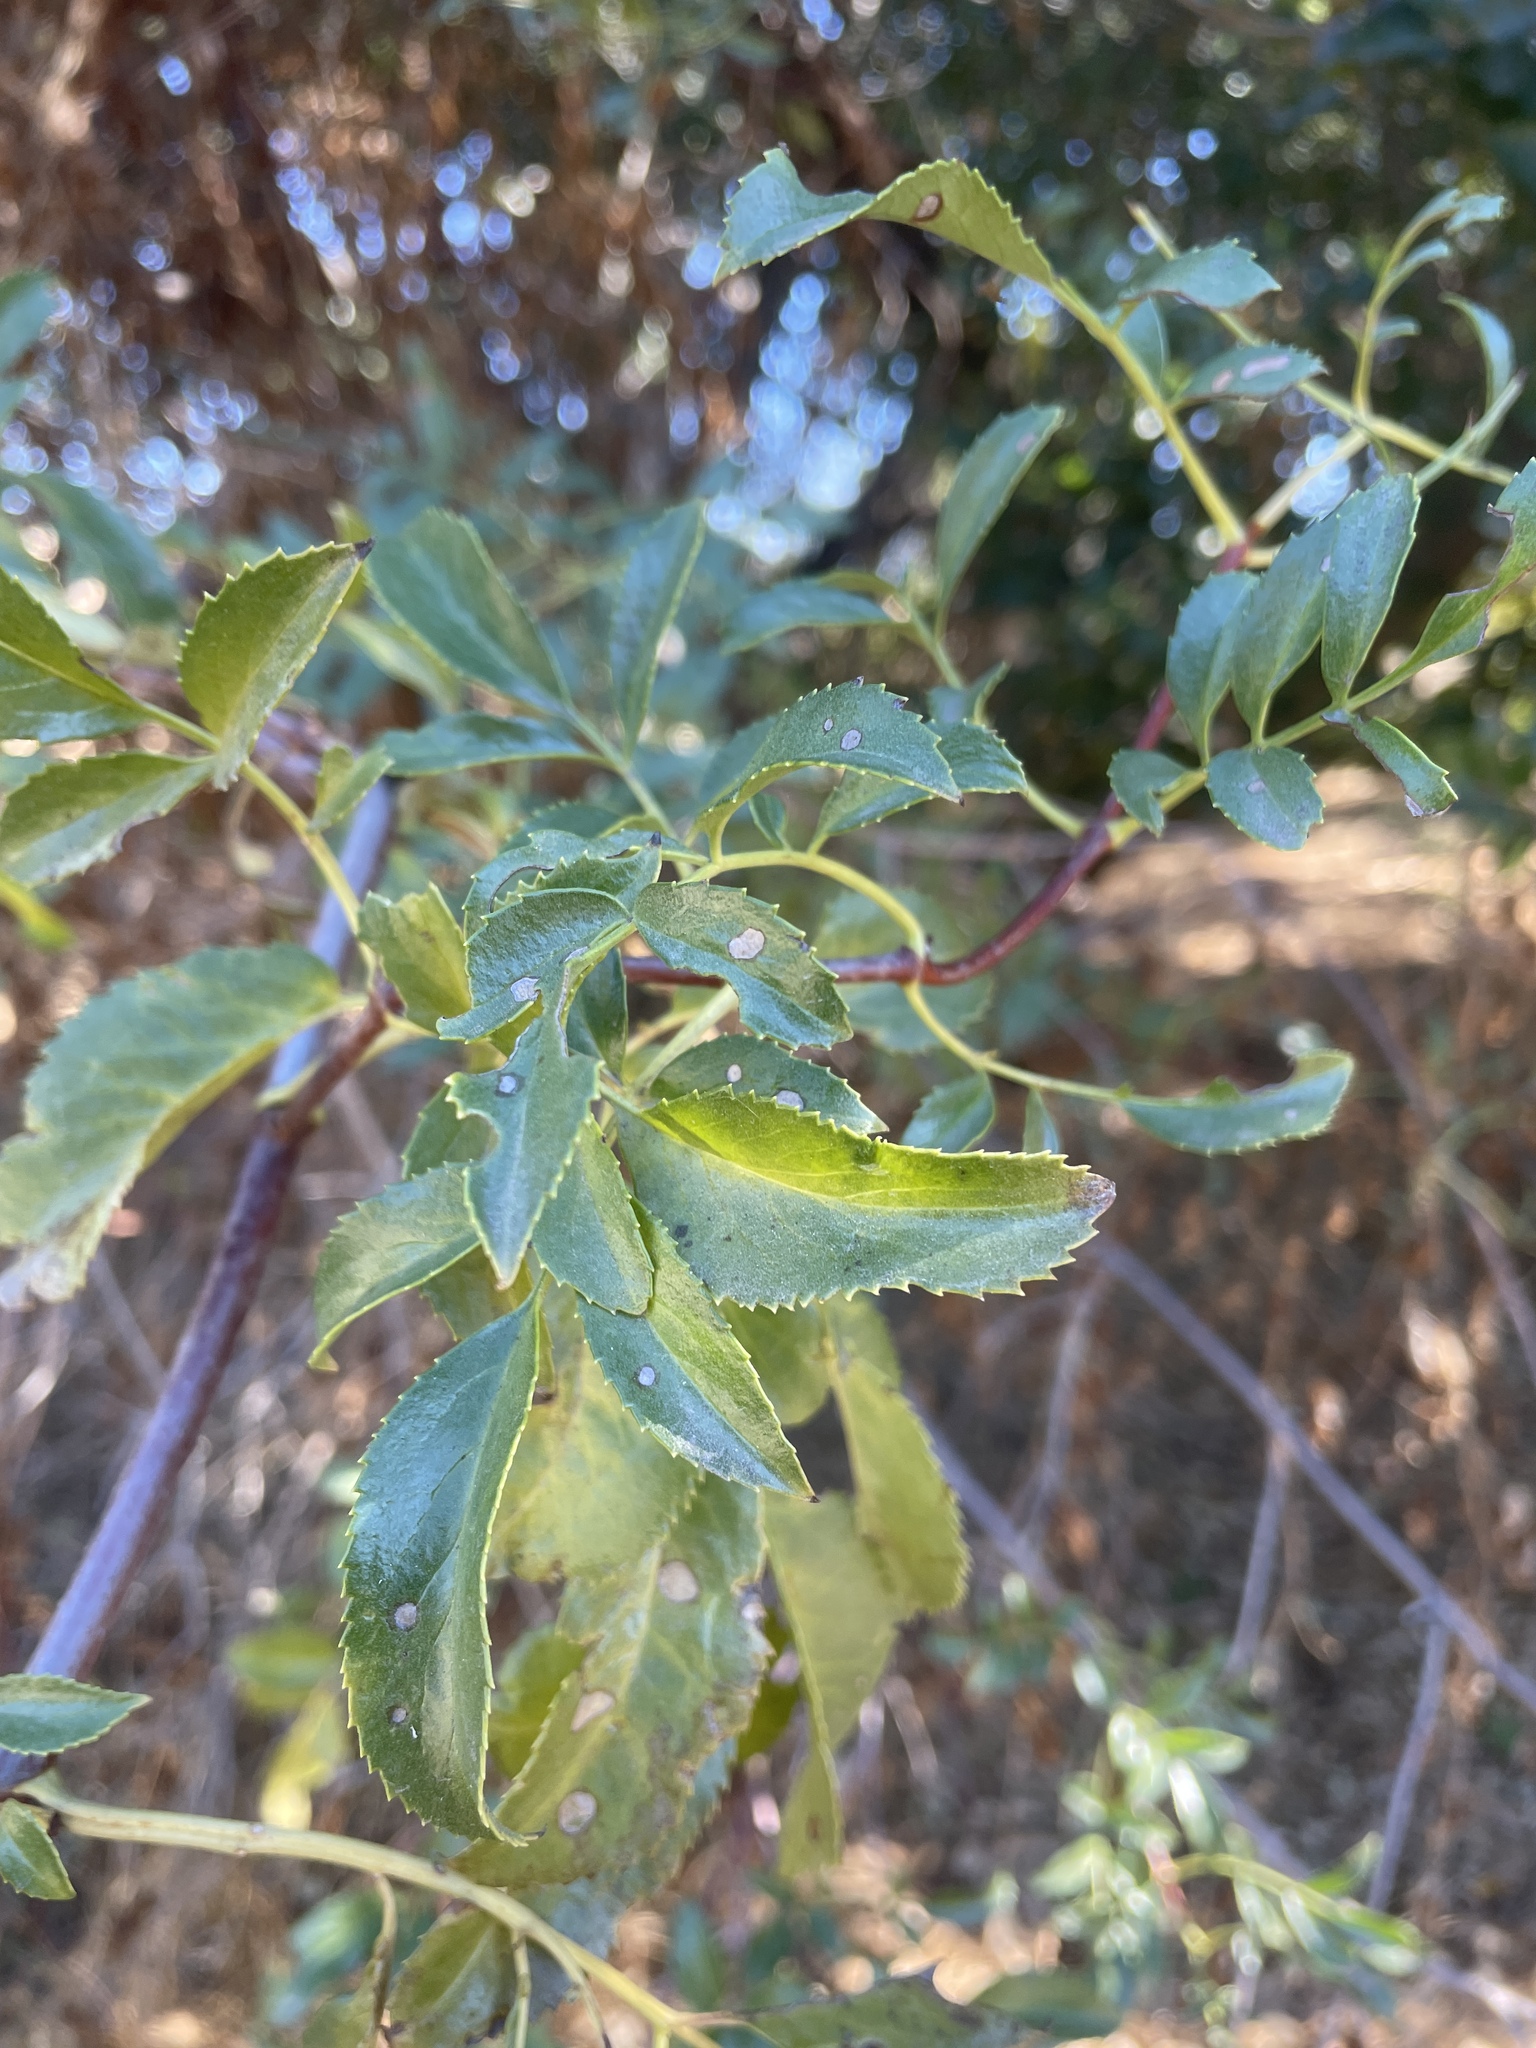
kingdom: Plantae
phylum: Tracheophyta
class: Magnoliopsida
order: Dipsacales
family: Viburnaceae
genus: Sambucus
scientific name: Sambucus cerulea
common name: Blue elder
